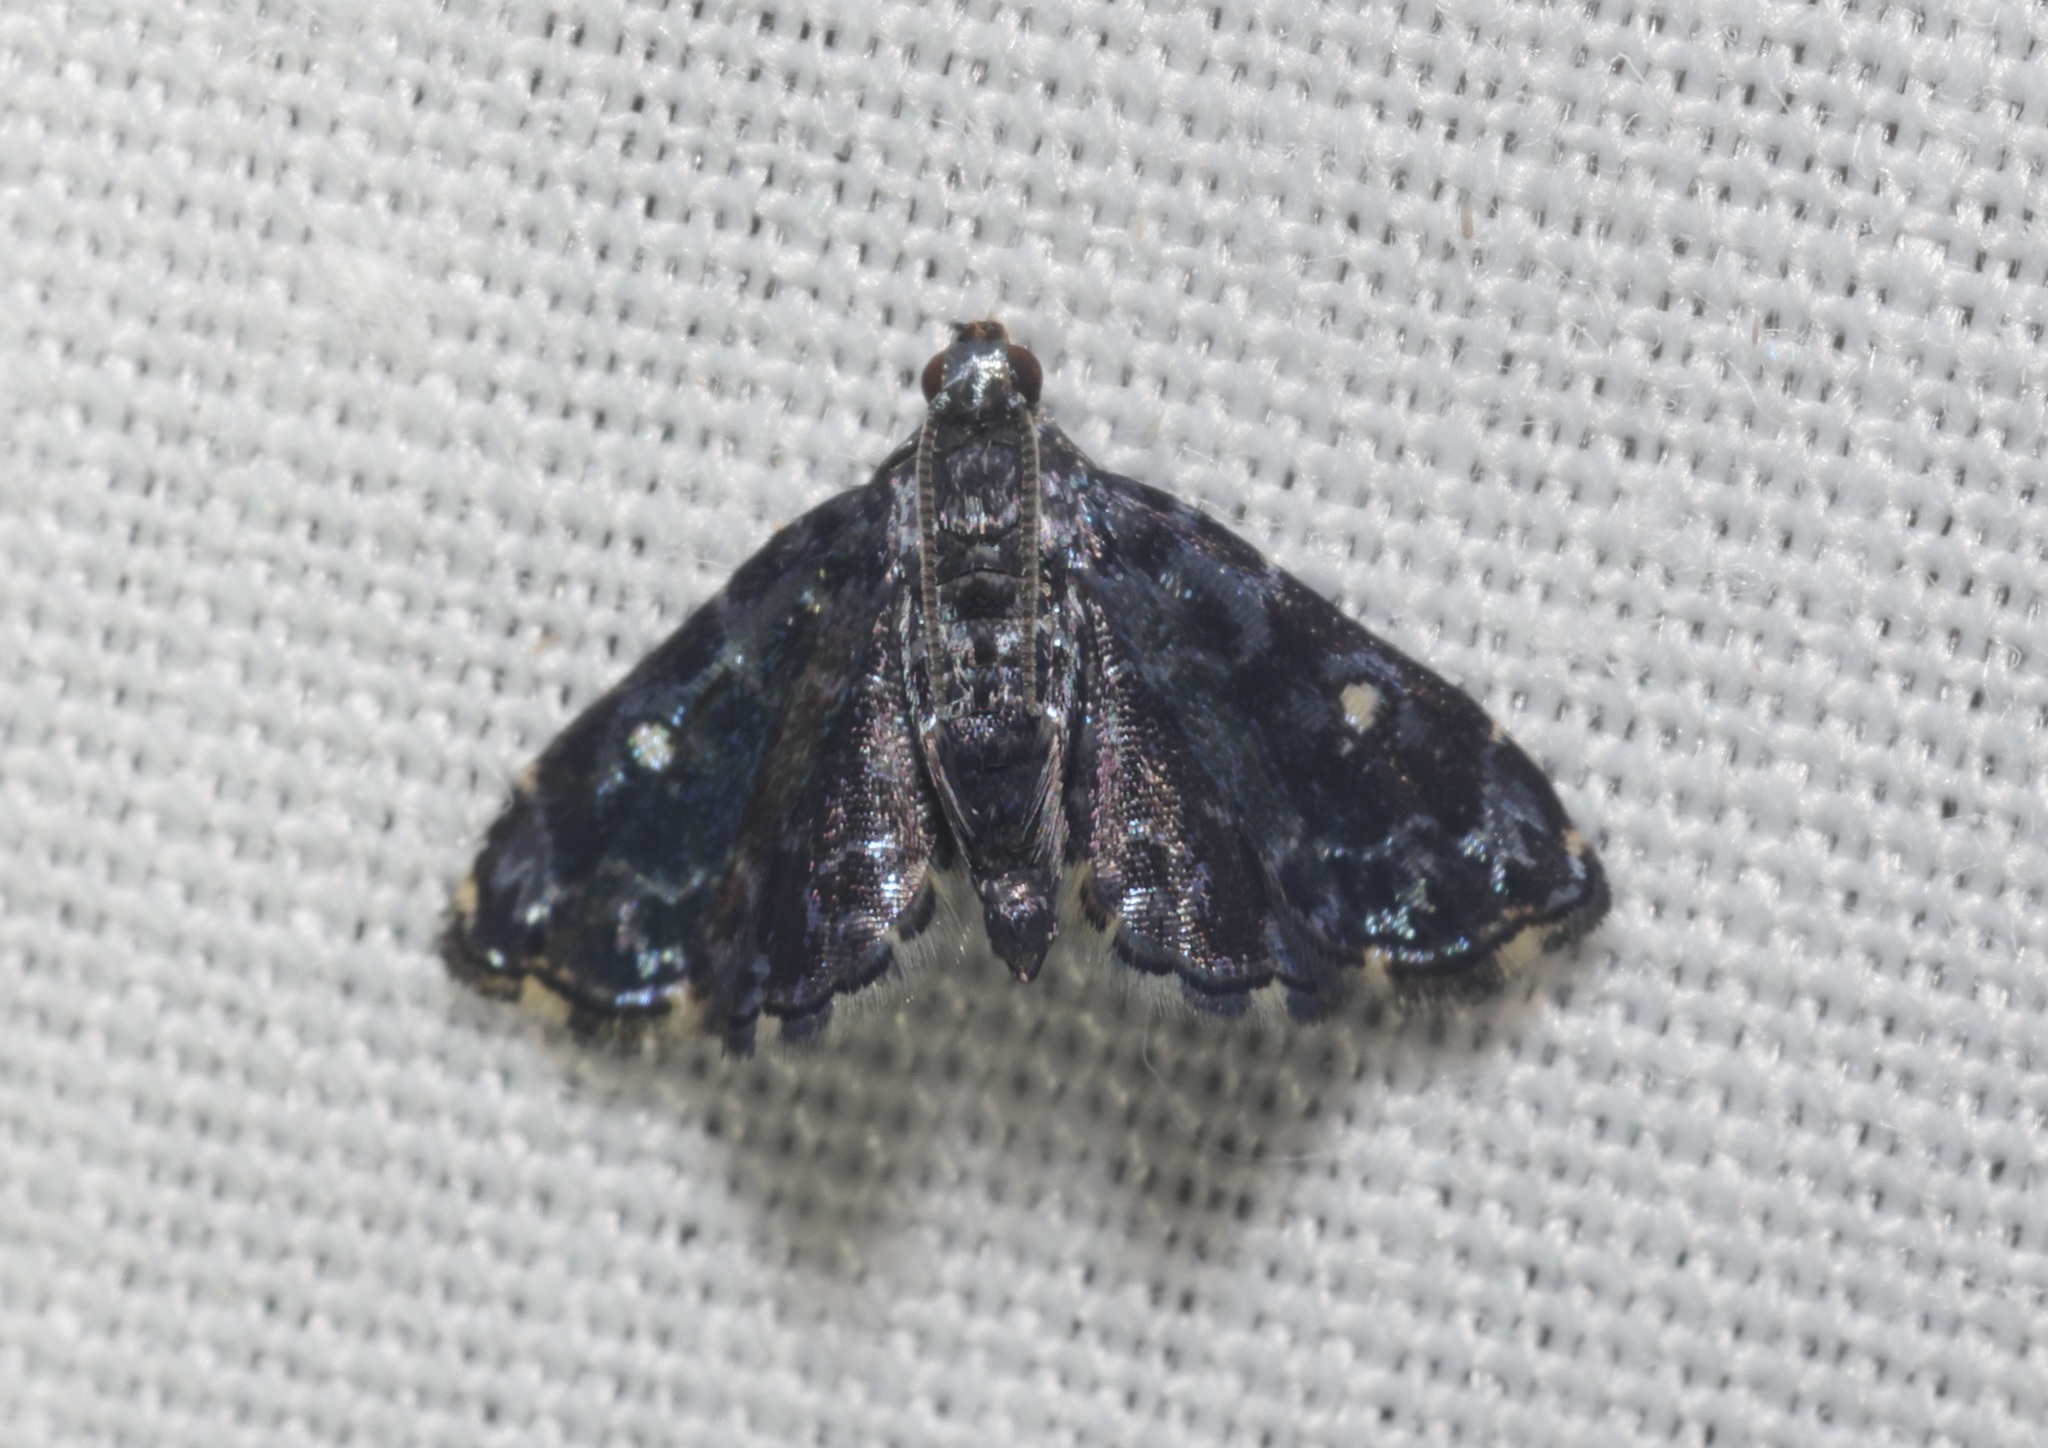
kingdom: Animalia
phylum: Arthropoda
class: Insecta
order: Lepidoptera
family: Pyralidae
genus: Drosophantis
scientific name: Drosophantis caeruleata
